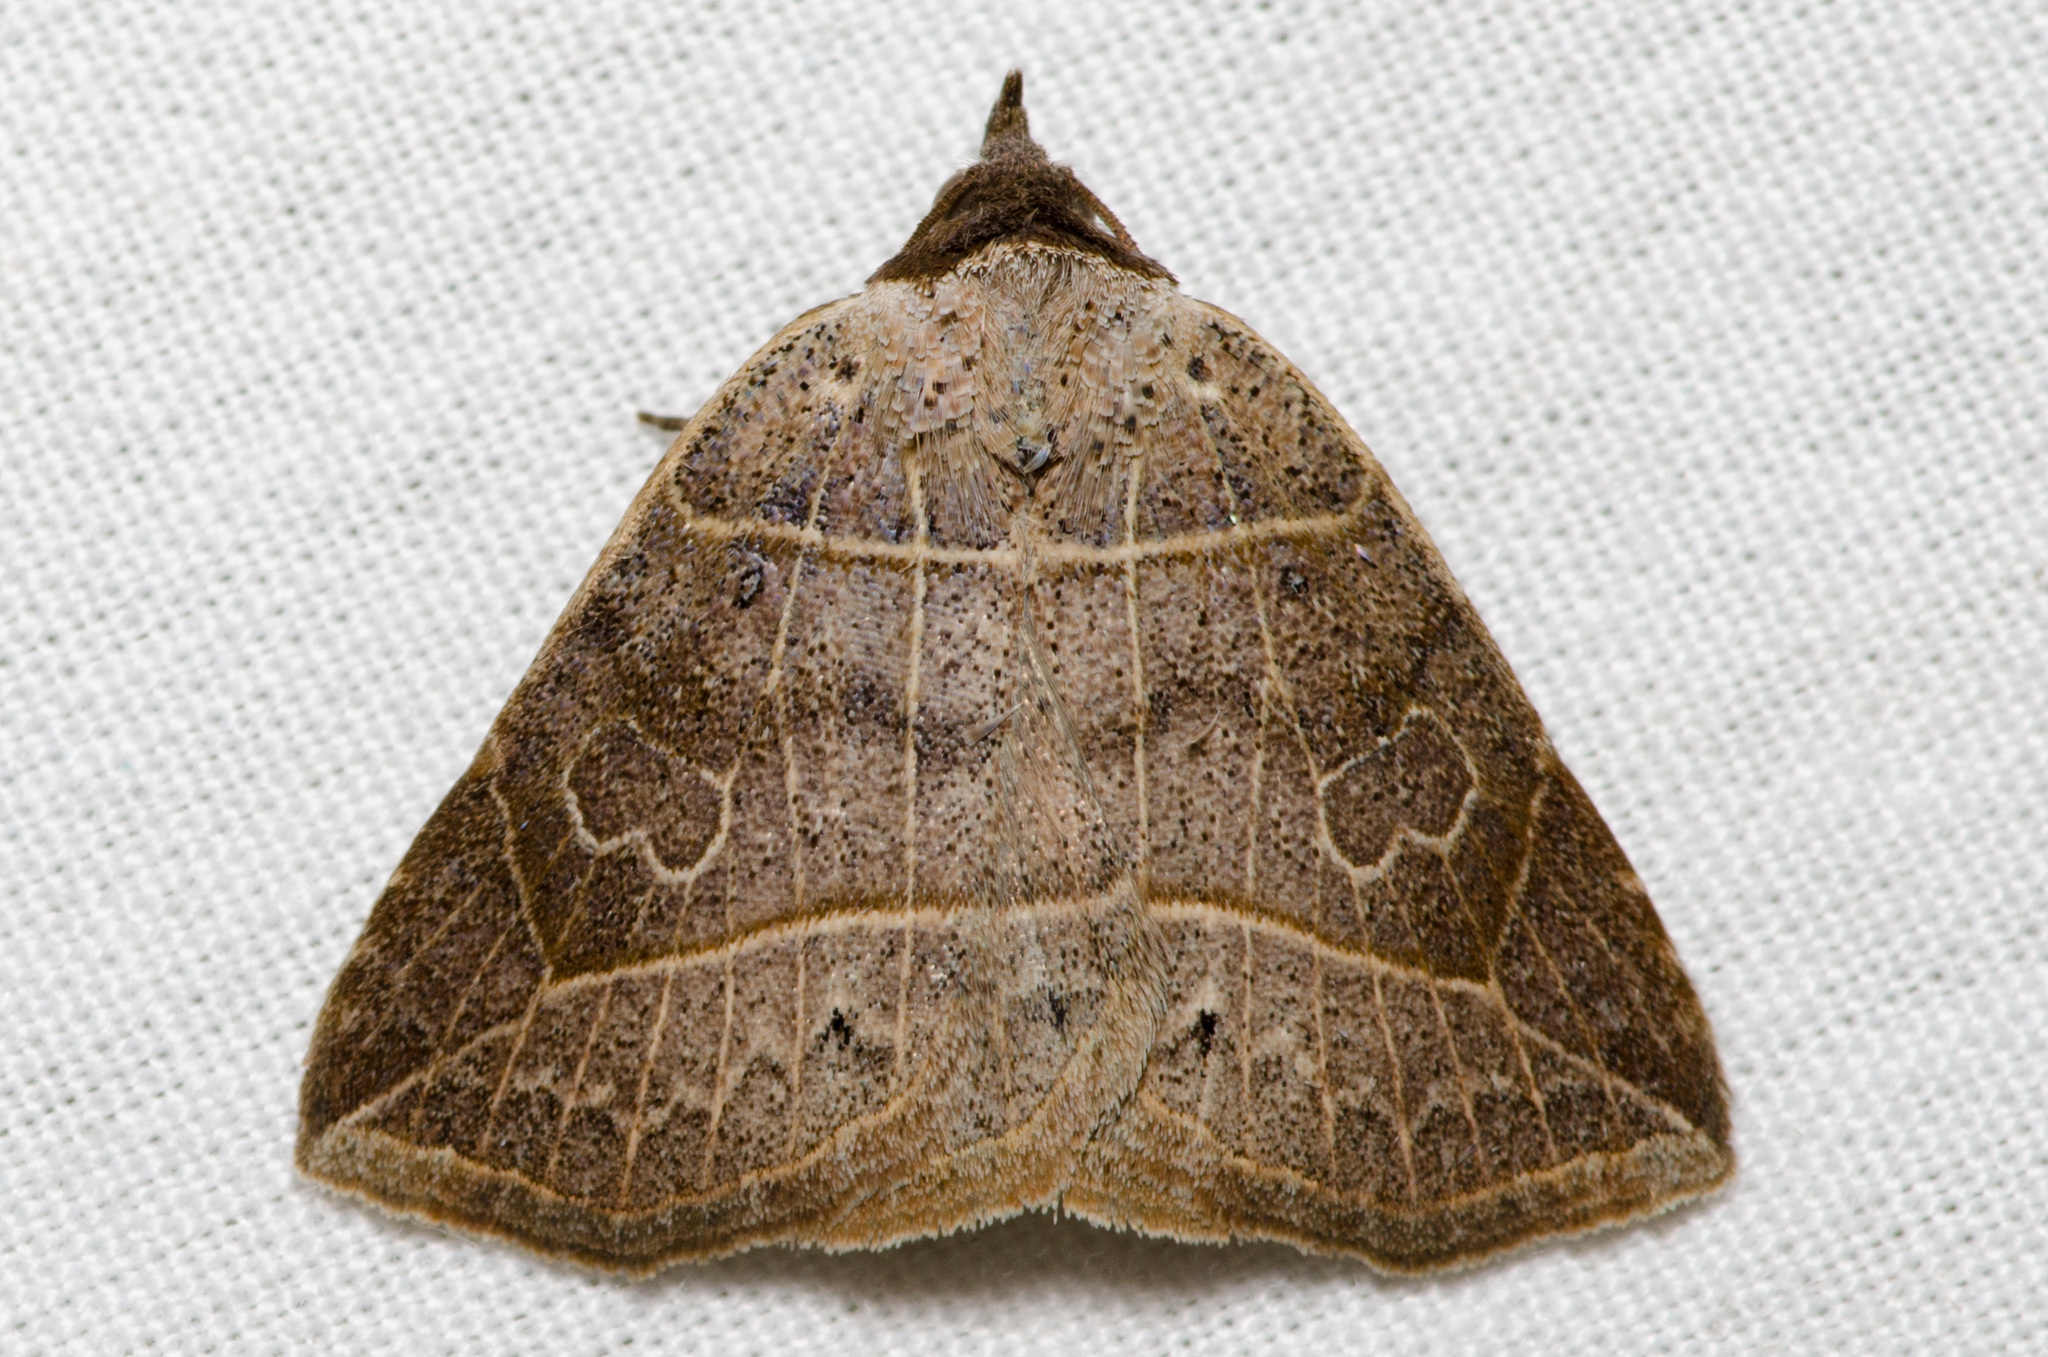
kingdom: Animalia
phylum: Arthropoda
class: Insecta
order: Lepidoptera
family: Erebidae
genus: Isogona
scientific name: Isogona tenuis
